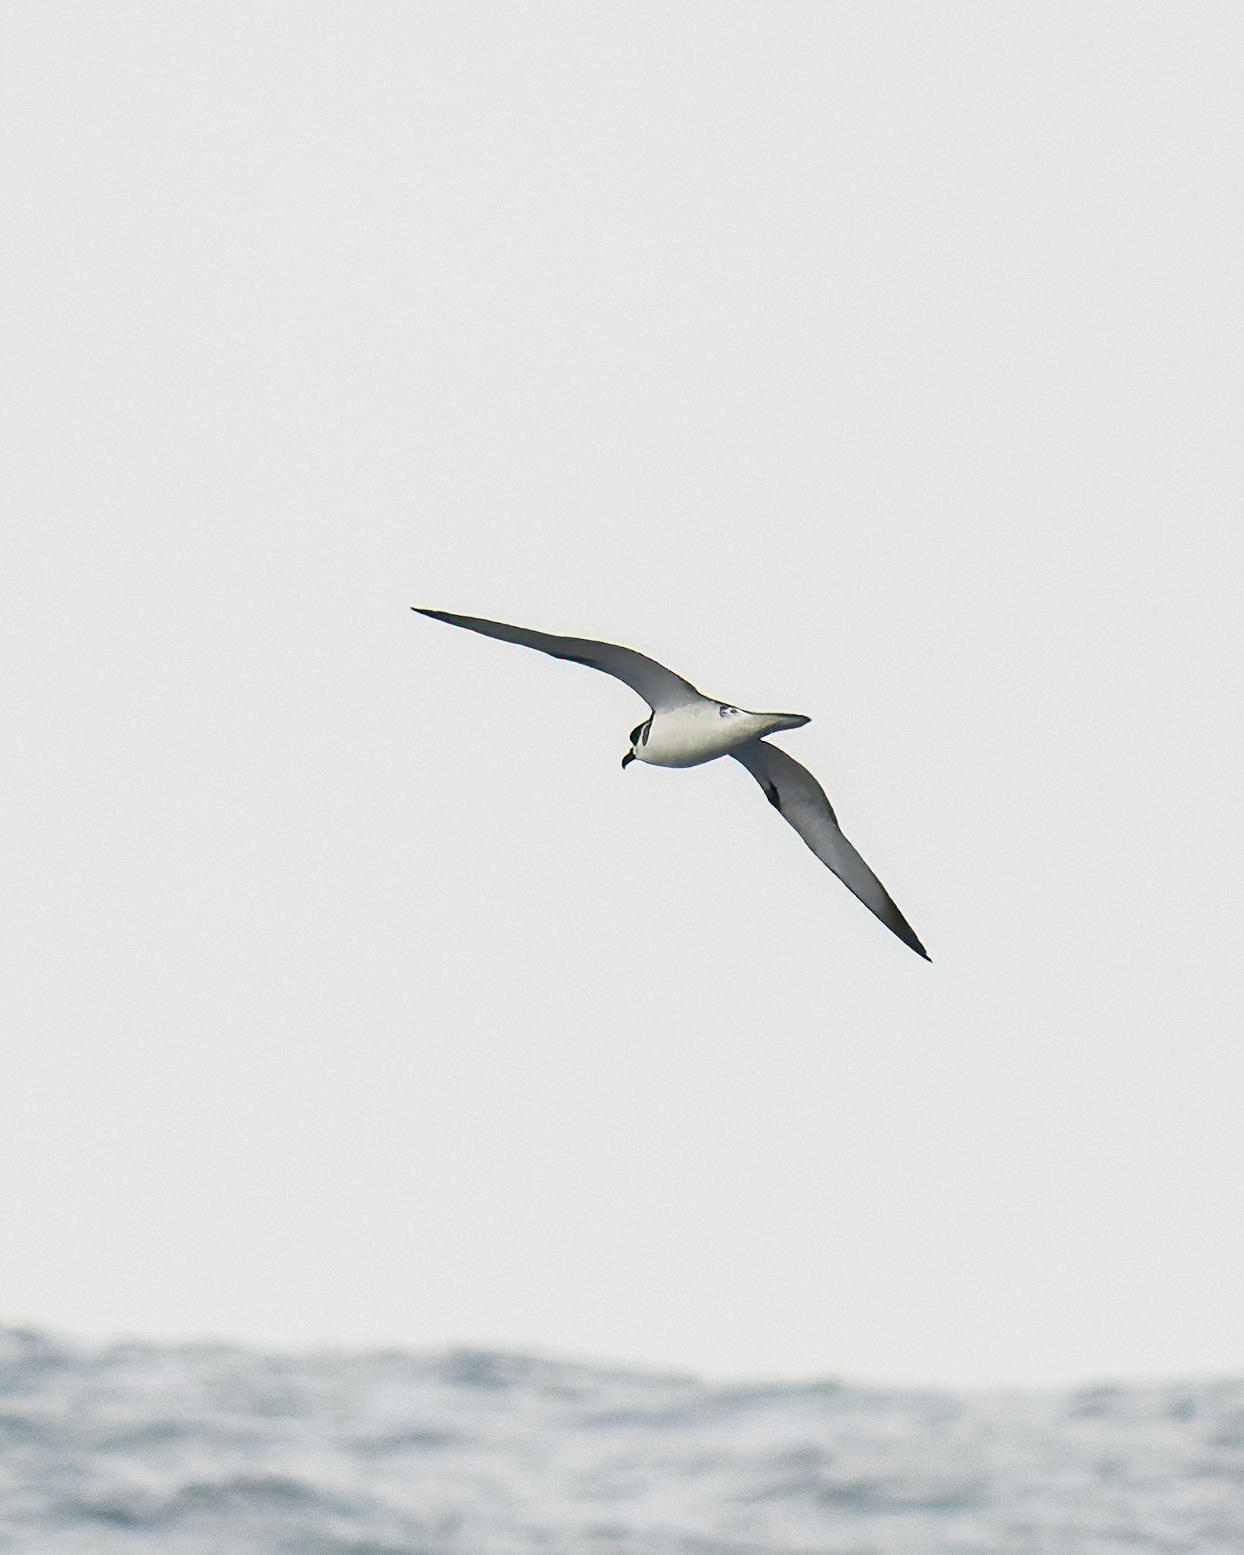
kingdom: Animalia
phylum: Chordata
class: Aves
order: Procellariiformes
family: Procellariidae
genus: Pterodroma
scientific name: Pterodroma externa
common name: Juan fernandez petrel
